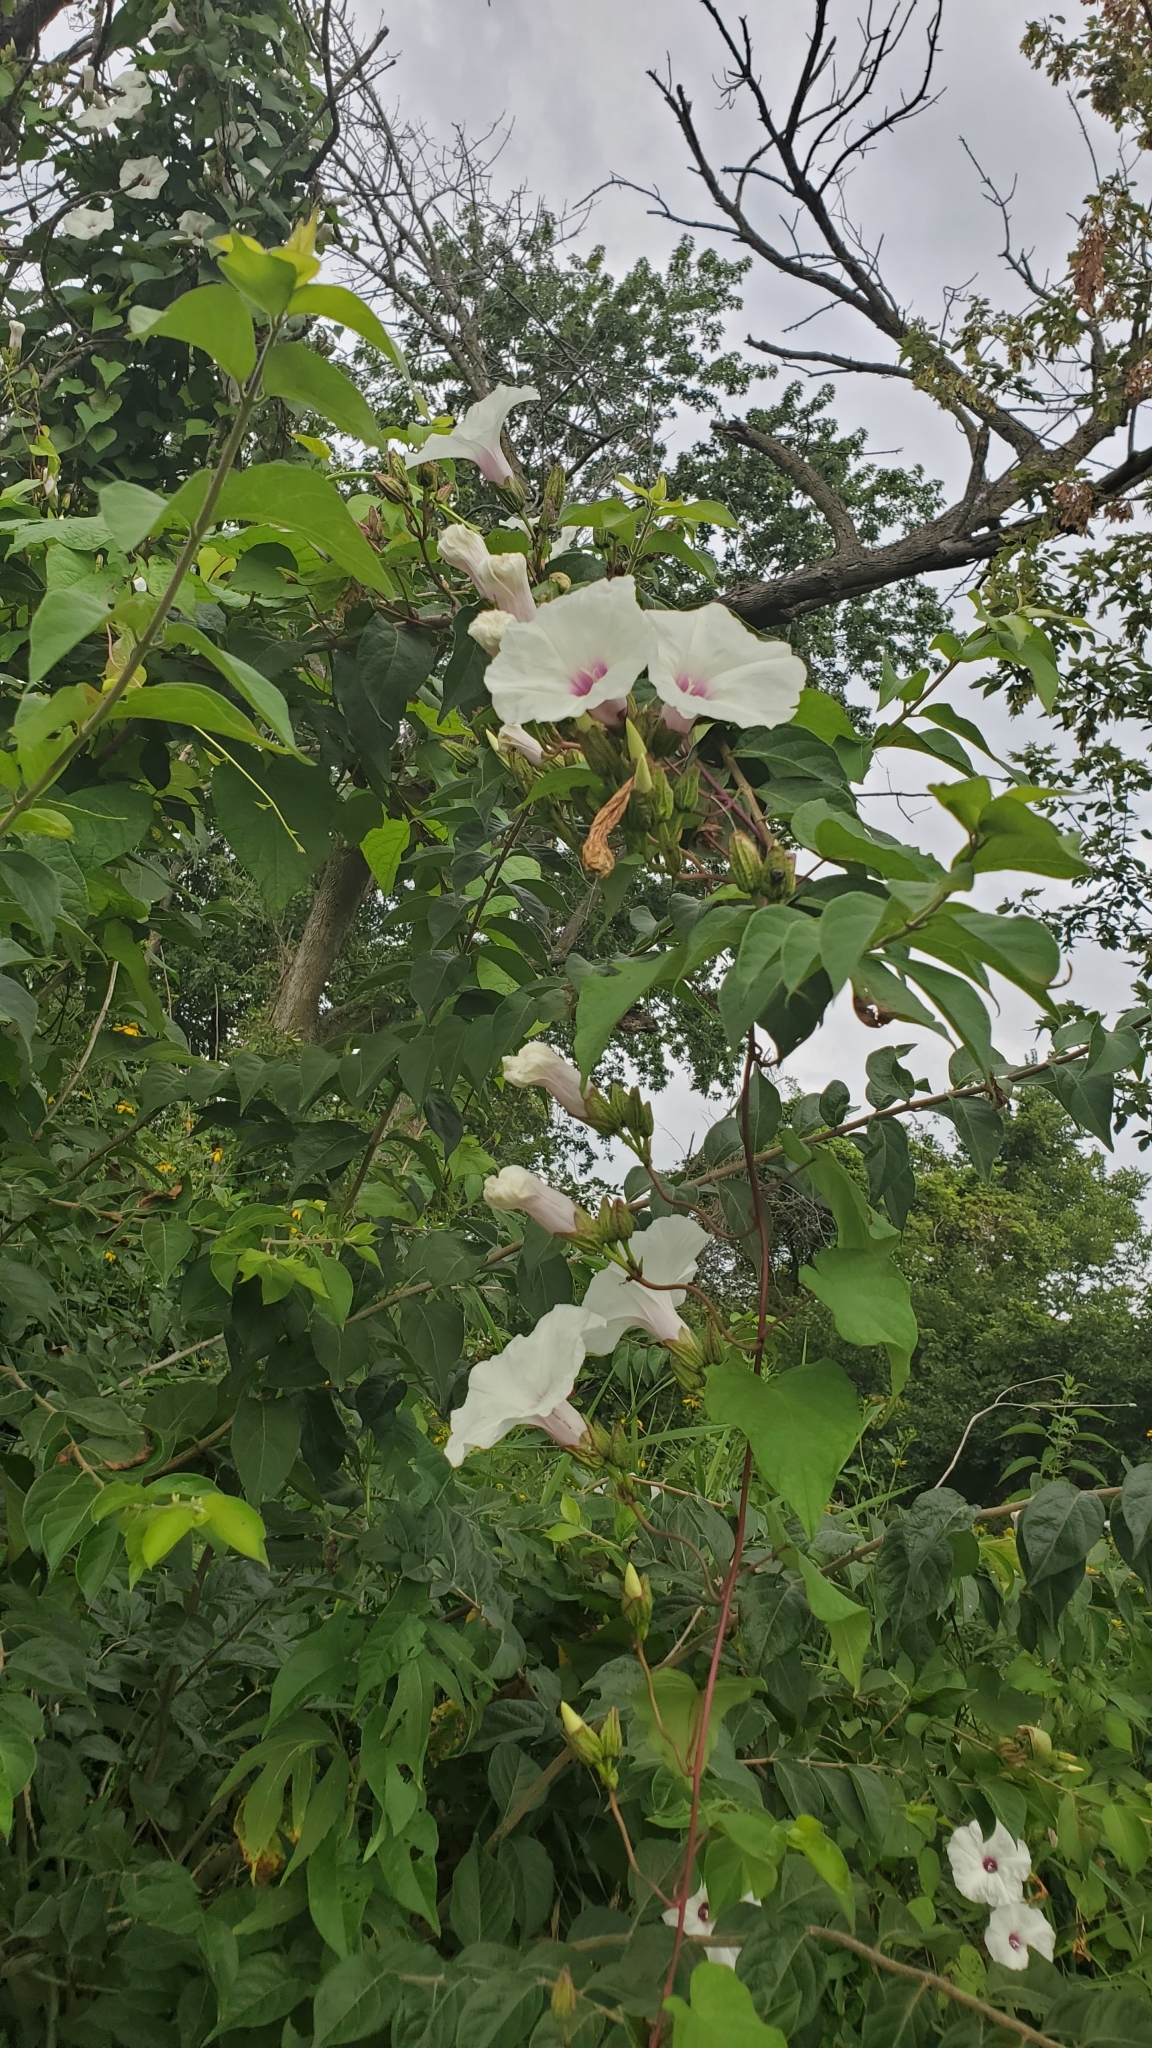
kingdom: Plantae
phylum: Tracheophyta
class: Magnoliopsida
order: Solanales
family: Convolvulaceae
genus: Ipomoea
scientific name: Ipomoea pandurata
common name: Man-of-the-earth
